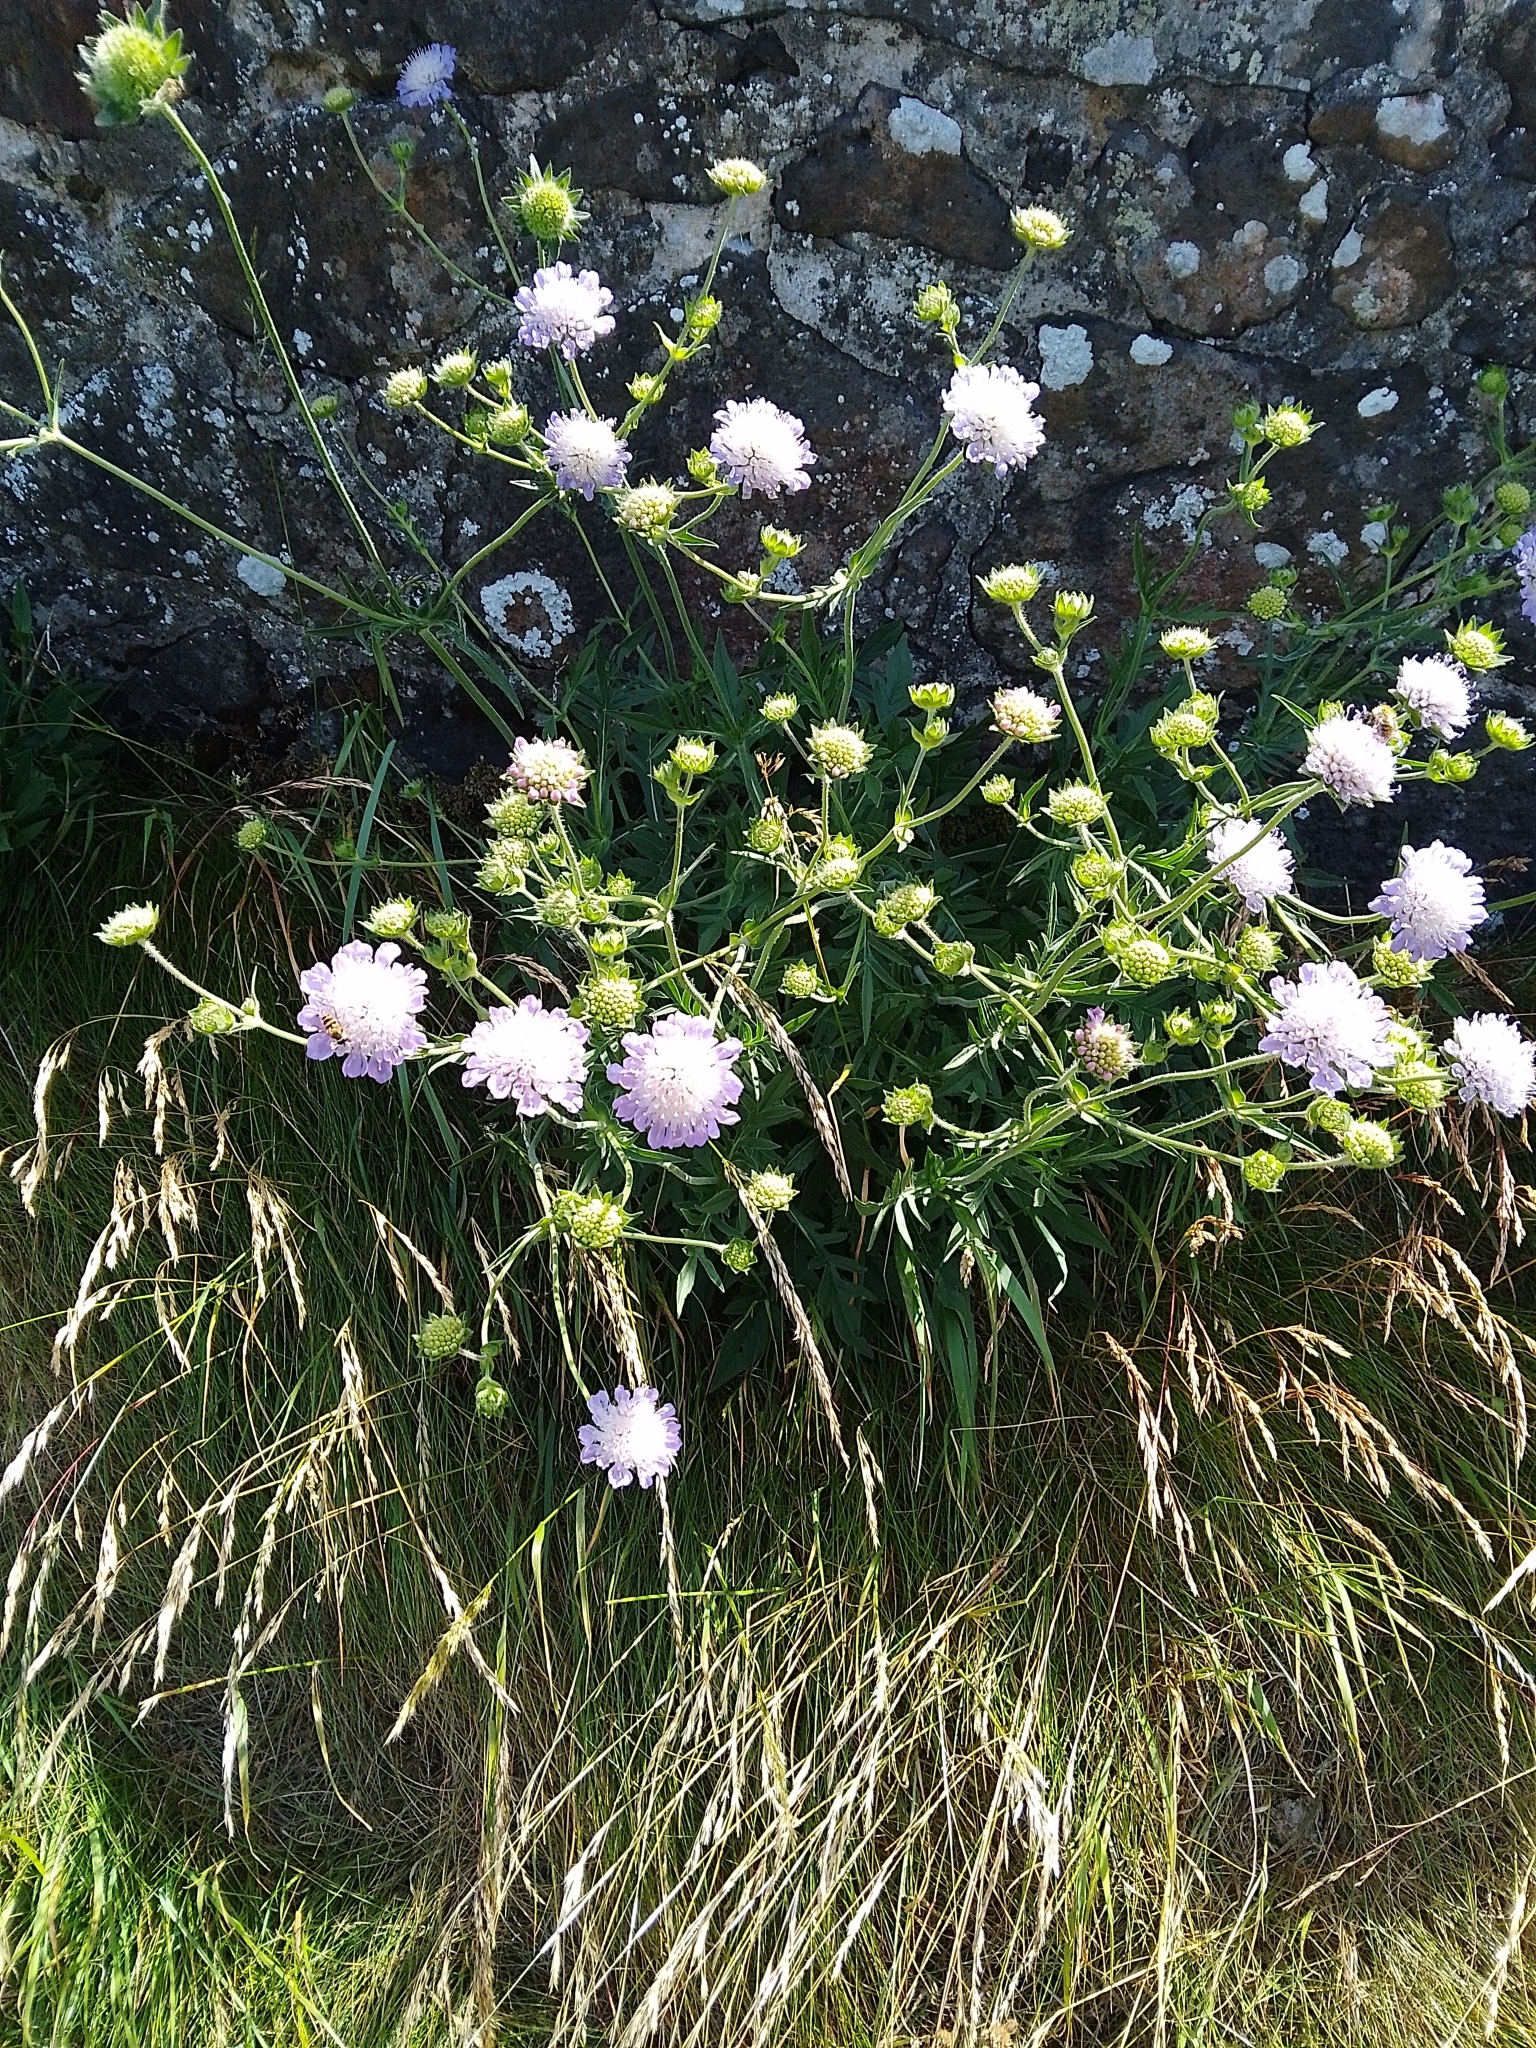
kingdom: Plantae
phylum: Tracheophyta
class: Magnoliopsida
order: Dipsacales
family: Caprifoliaceae
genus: Knautia
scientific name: Knautia arvensis
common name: Field scabiosa
